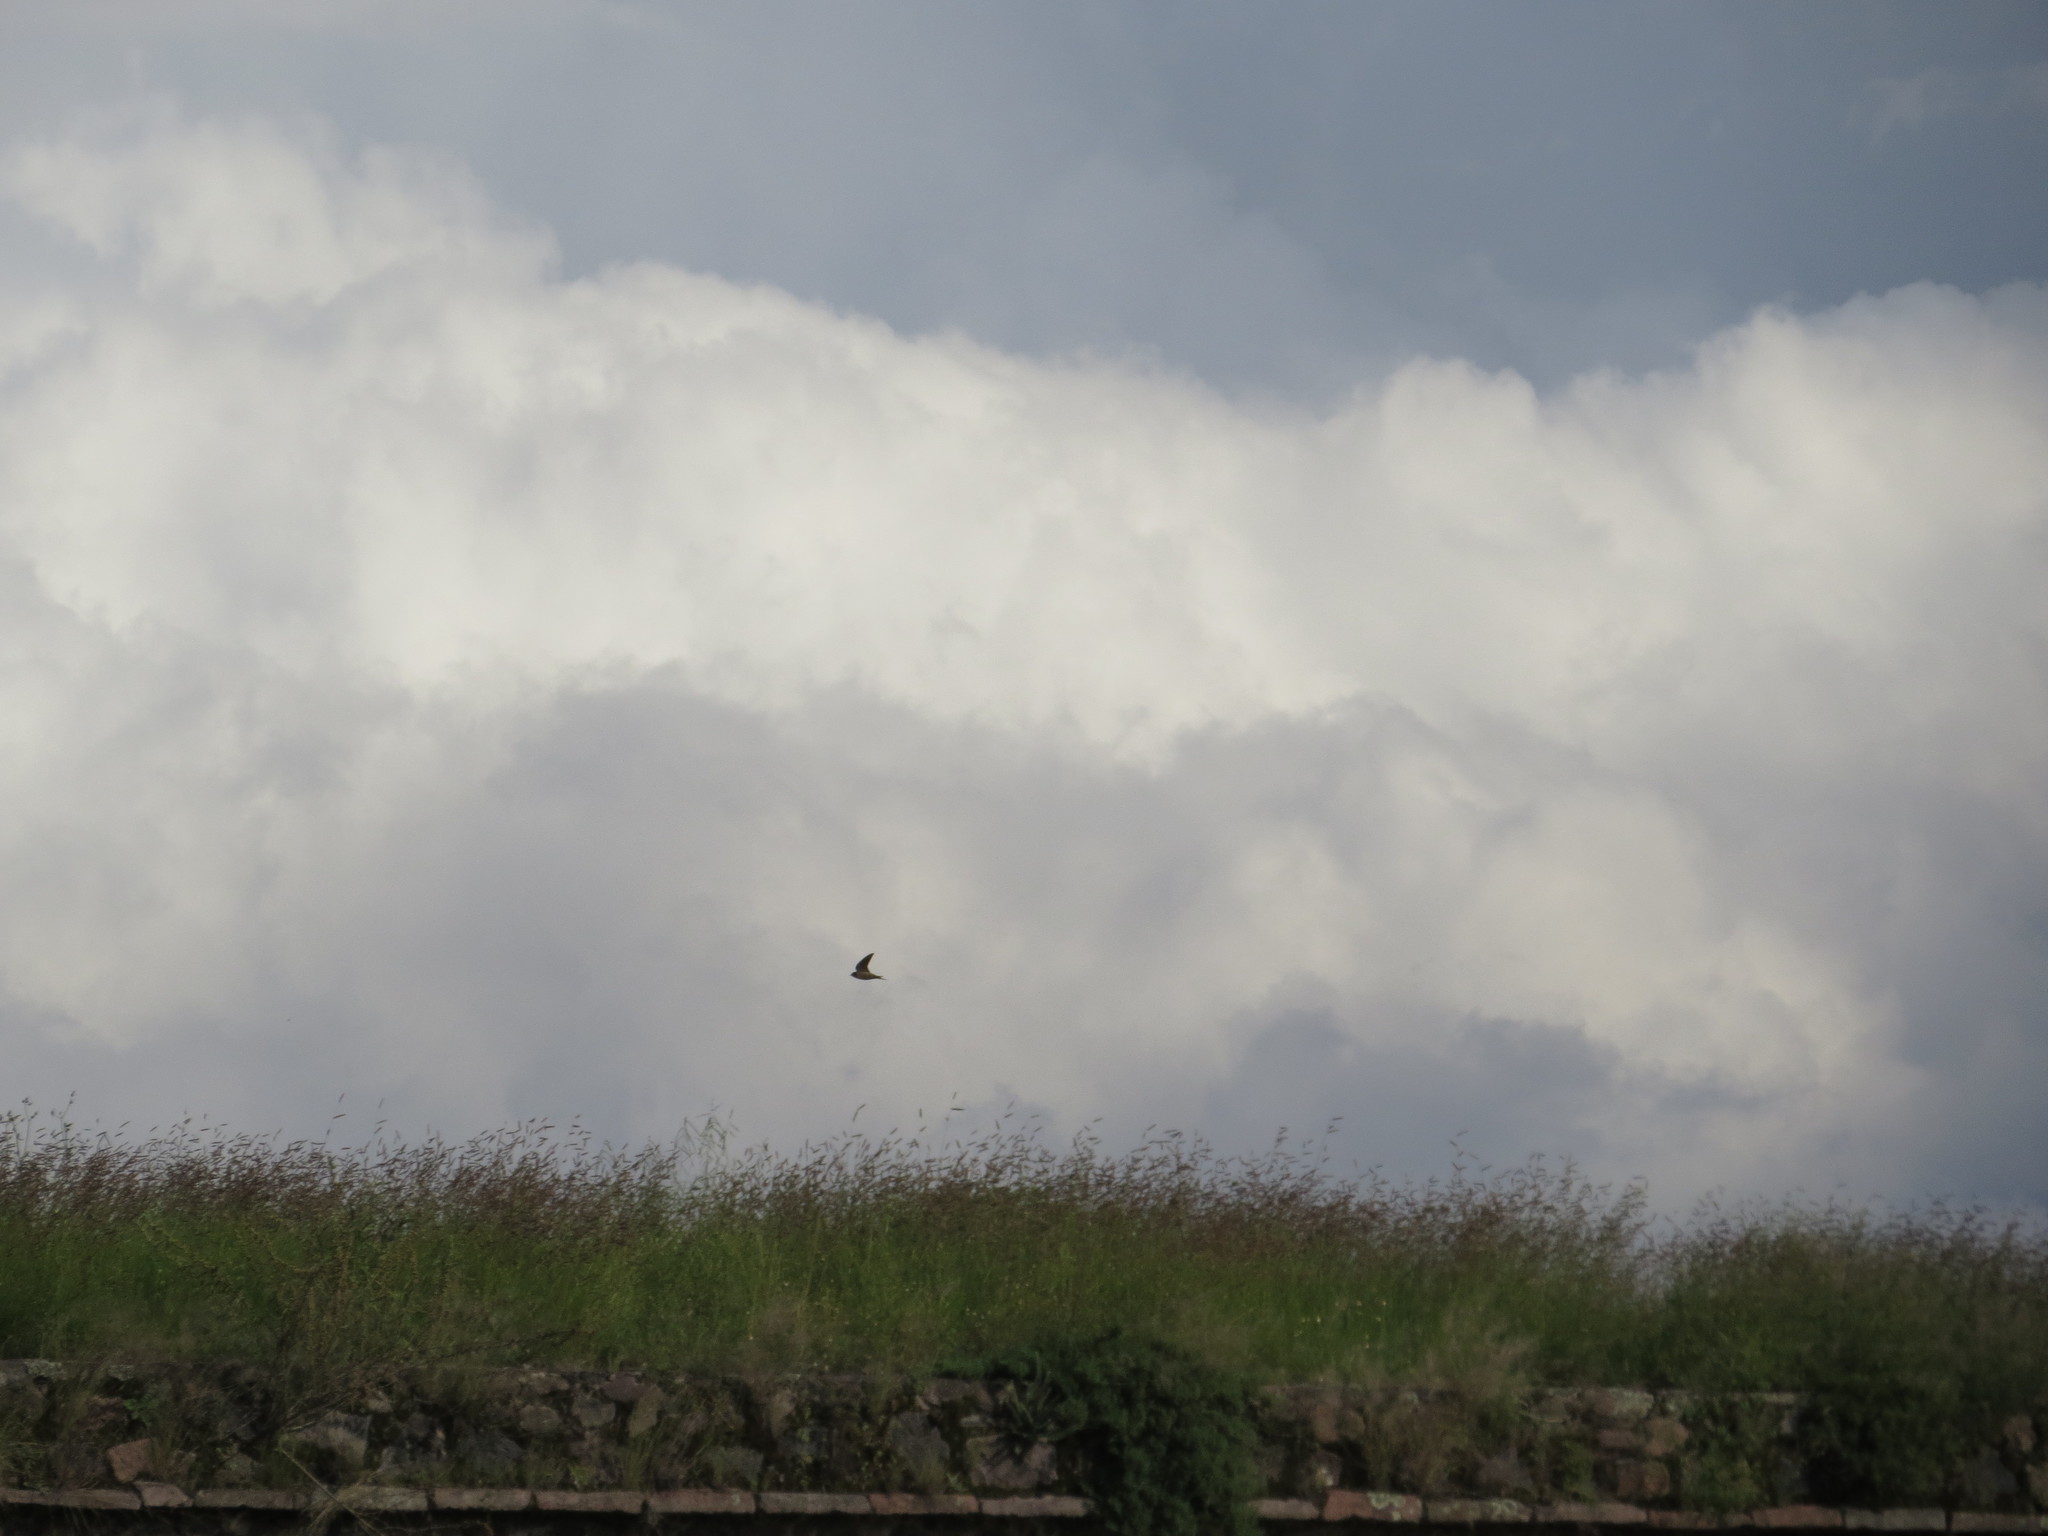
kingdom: Animalia
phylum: Chordata
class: Aves
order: Passeriformes
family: Hirundinidae
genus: Hirundo
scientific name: Hirundo rustica
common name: Barn swallow
